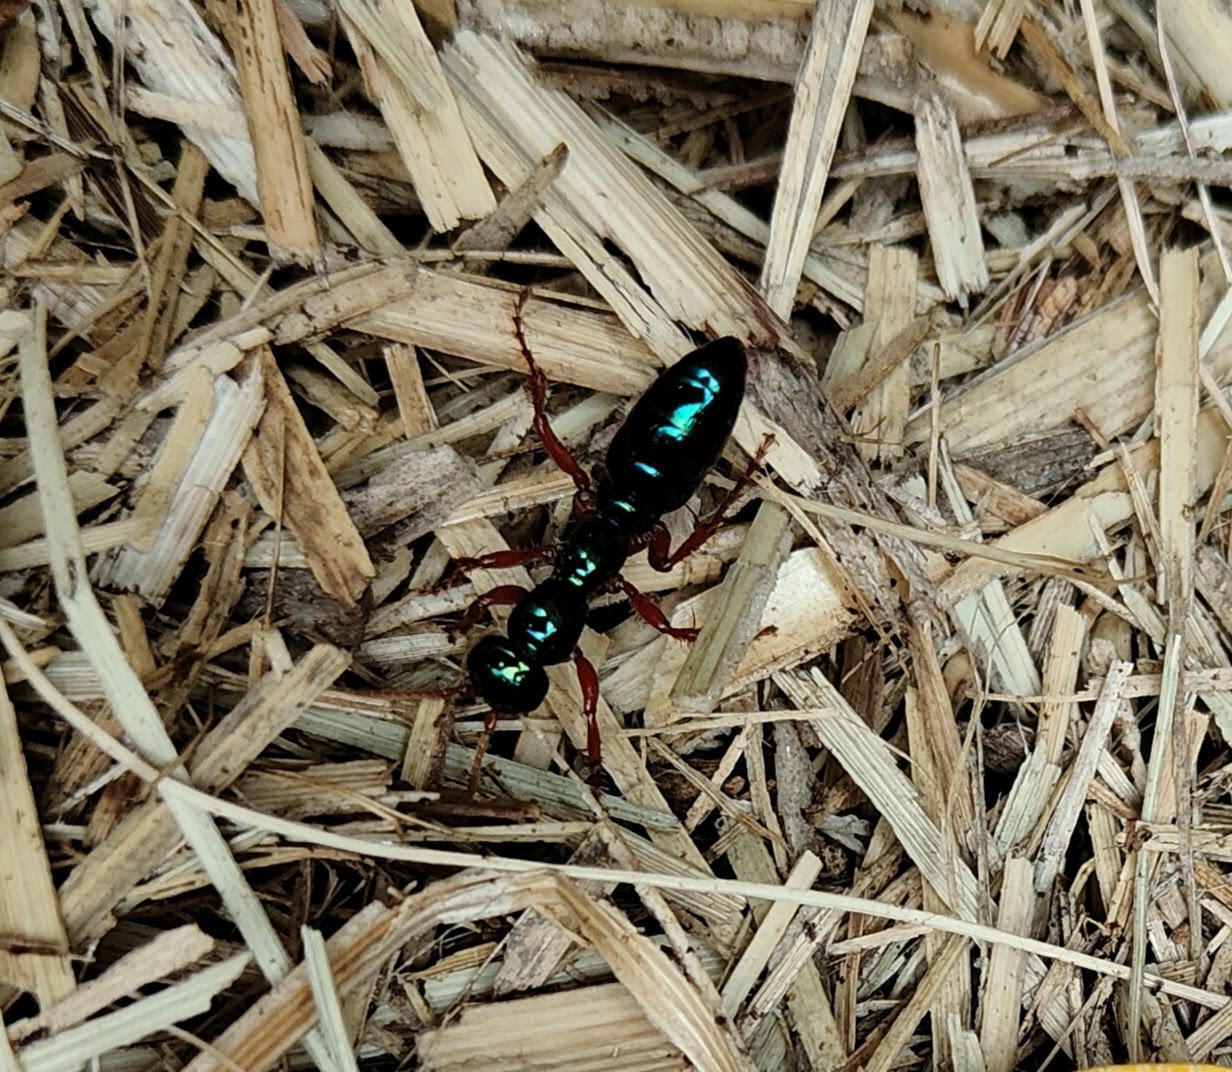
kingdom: Animalia
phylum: Arthropoda
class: Insecta
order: Hymenoptera
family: Tiphiidae
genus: Diamma
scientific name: Diamma
